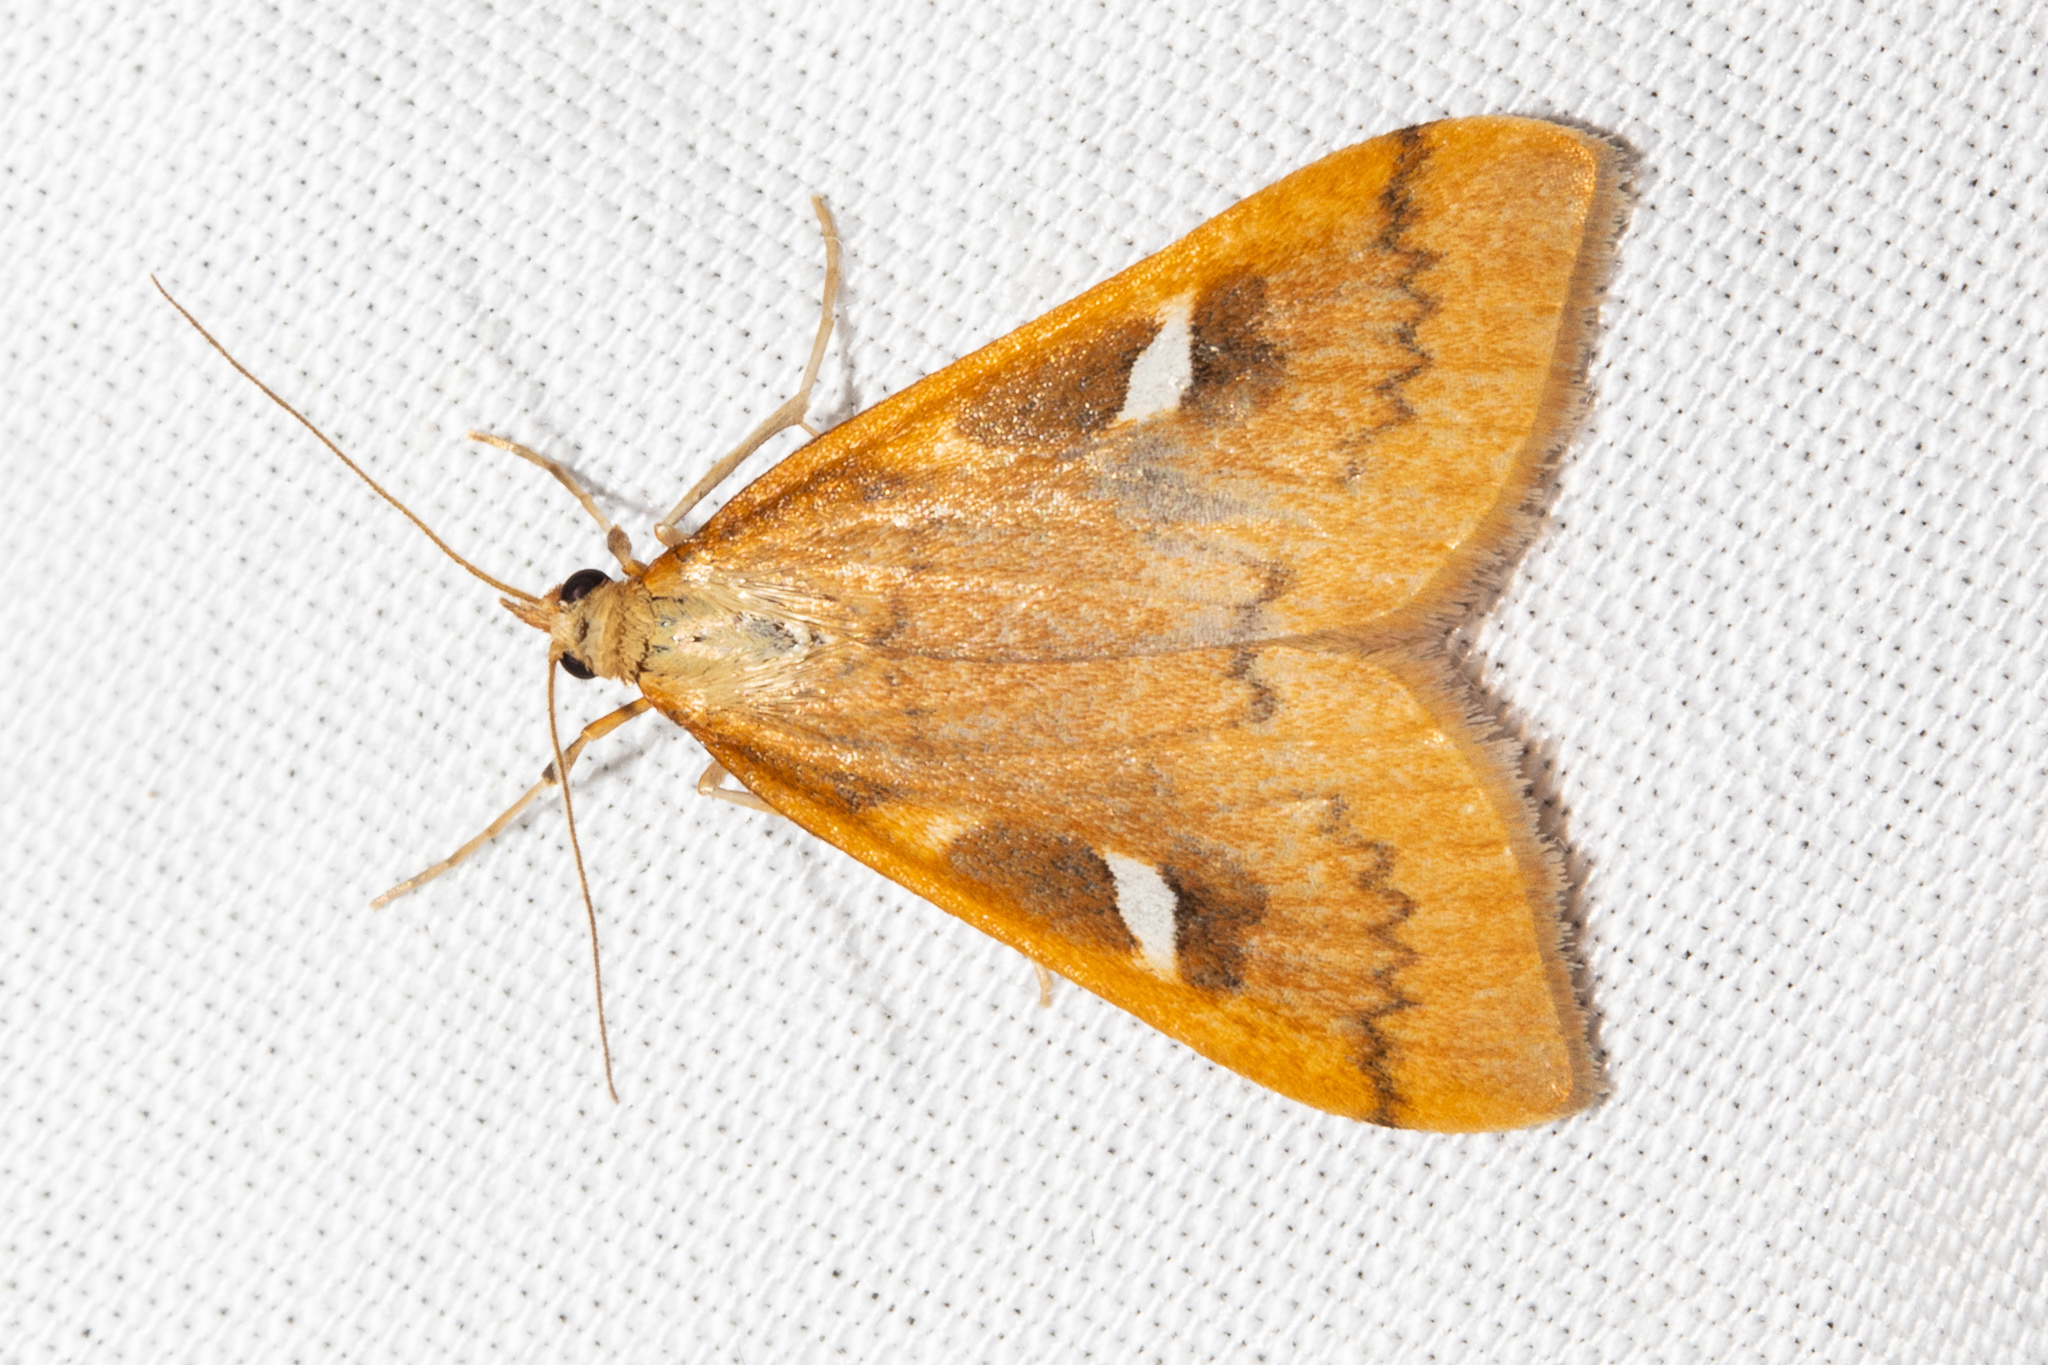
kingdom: Animalia
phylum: Arthropoda
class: Insecta
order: Lepidoptera
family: Crambidae
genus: Udea
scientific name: Udea notata
